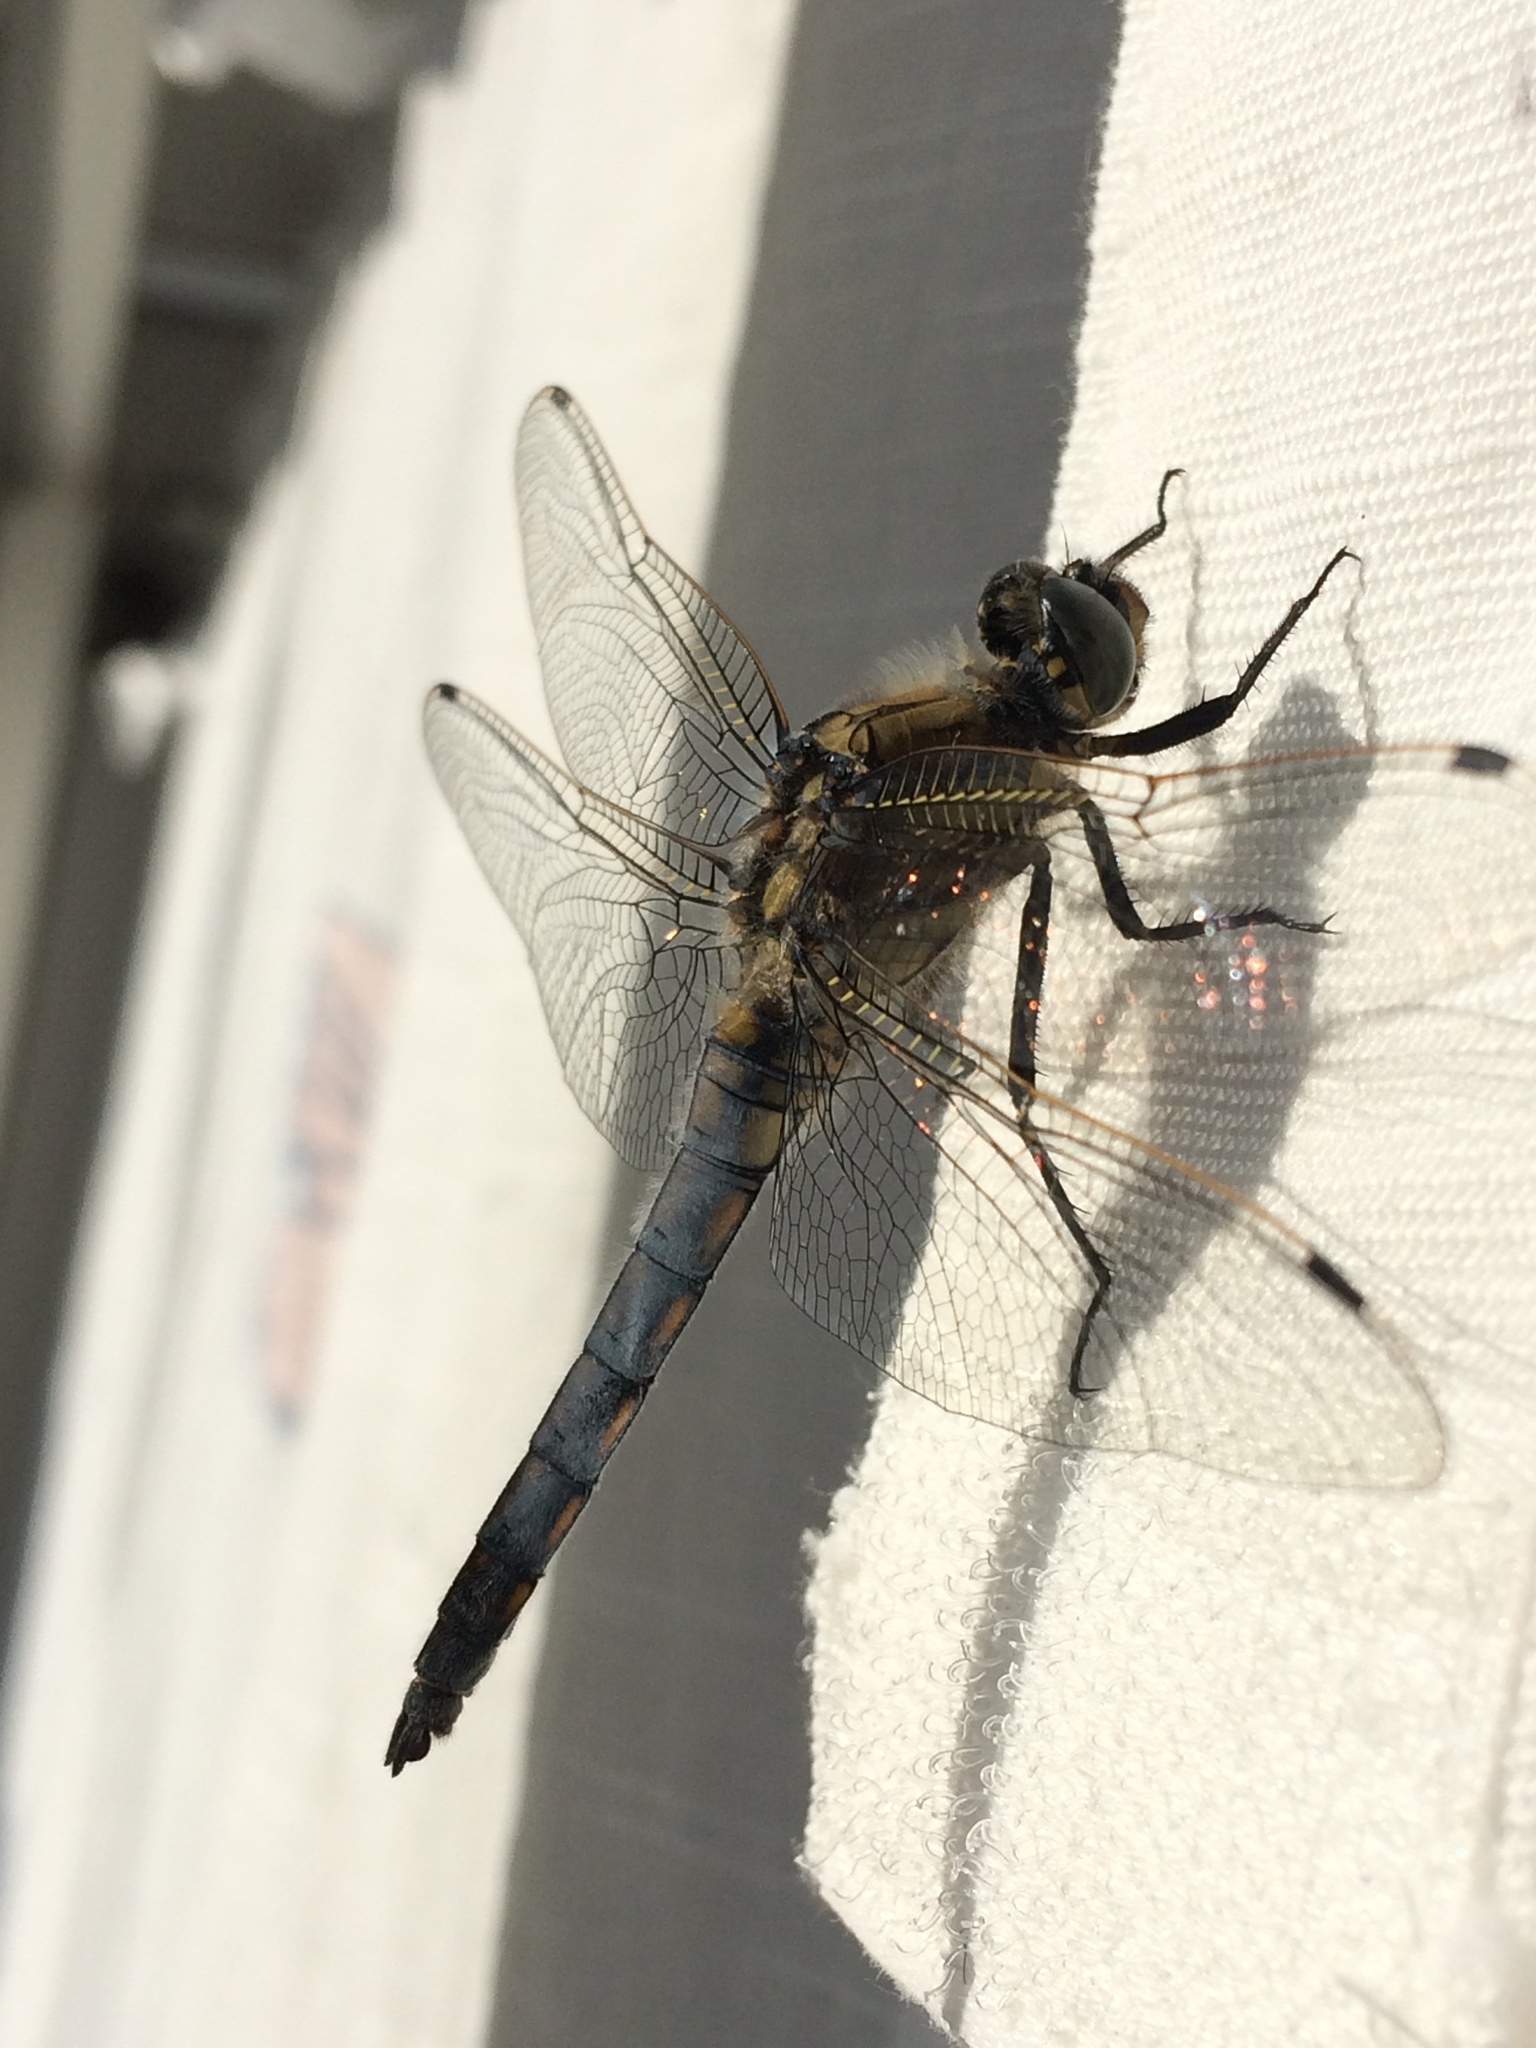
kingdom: Animalia
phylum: Arthropoda
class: Insecta
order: Odonata
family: Libellulidae
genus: Orthetrum
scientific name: Orthetrum cancellatum
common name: Black-tailed skimmer
